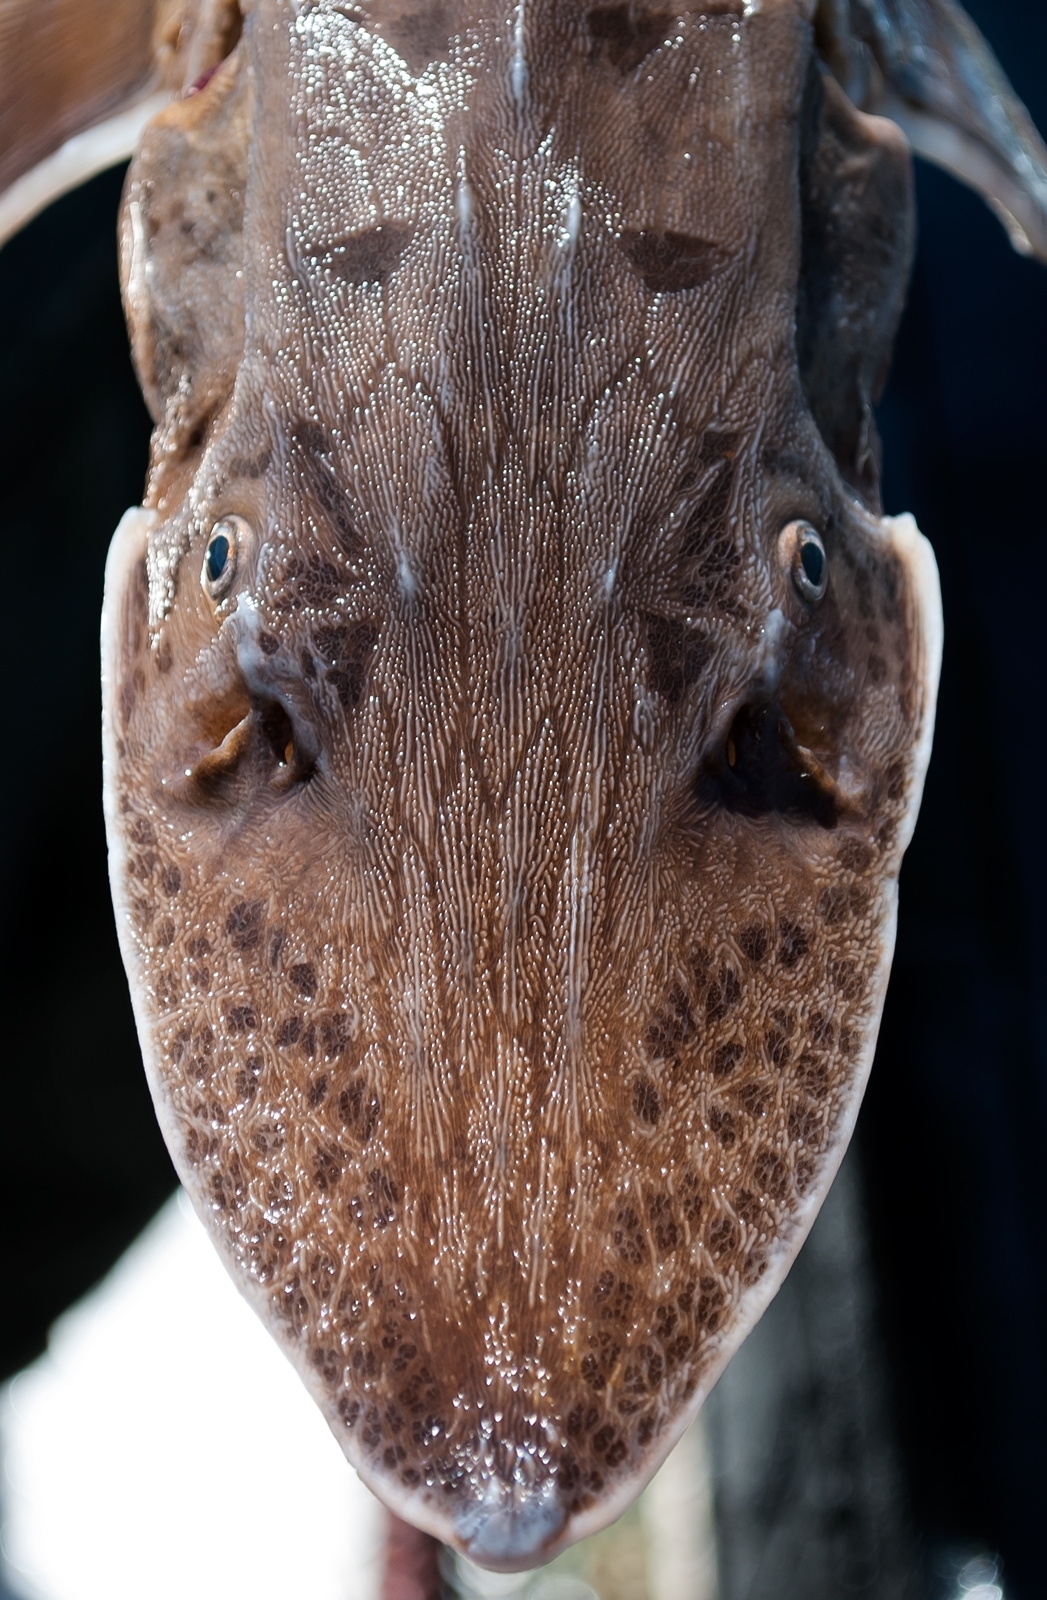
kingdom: Animalia
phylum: Chordata
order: Acipenseriformes
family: Acipenseridae
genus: Scaphirhynchus
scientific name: Scaphirhynchus platorynchus
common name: Shovelnose sturgeon
